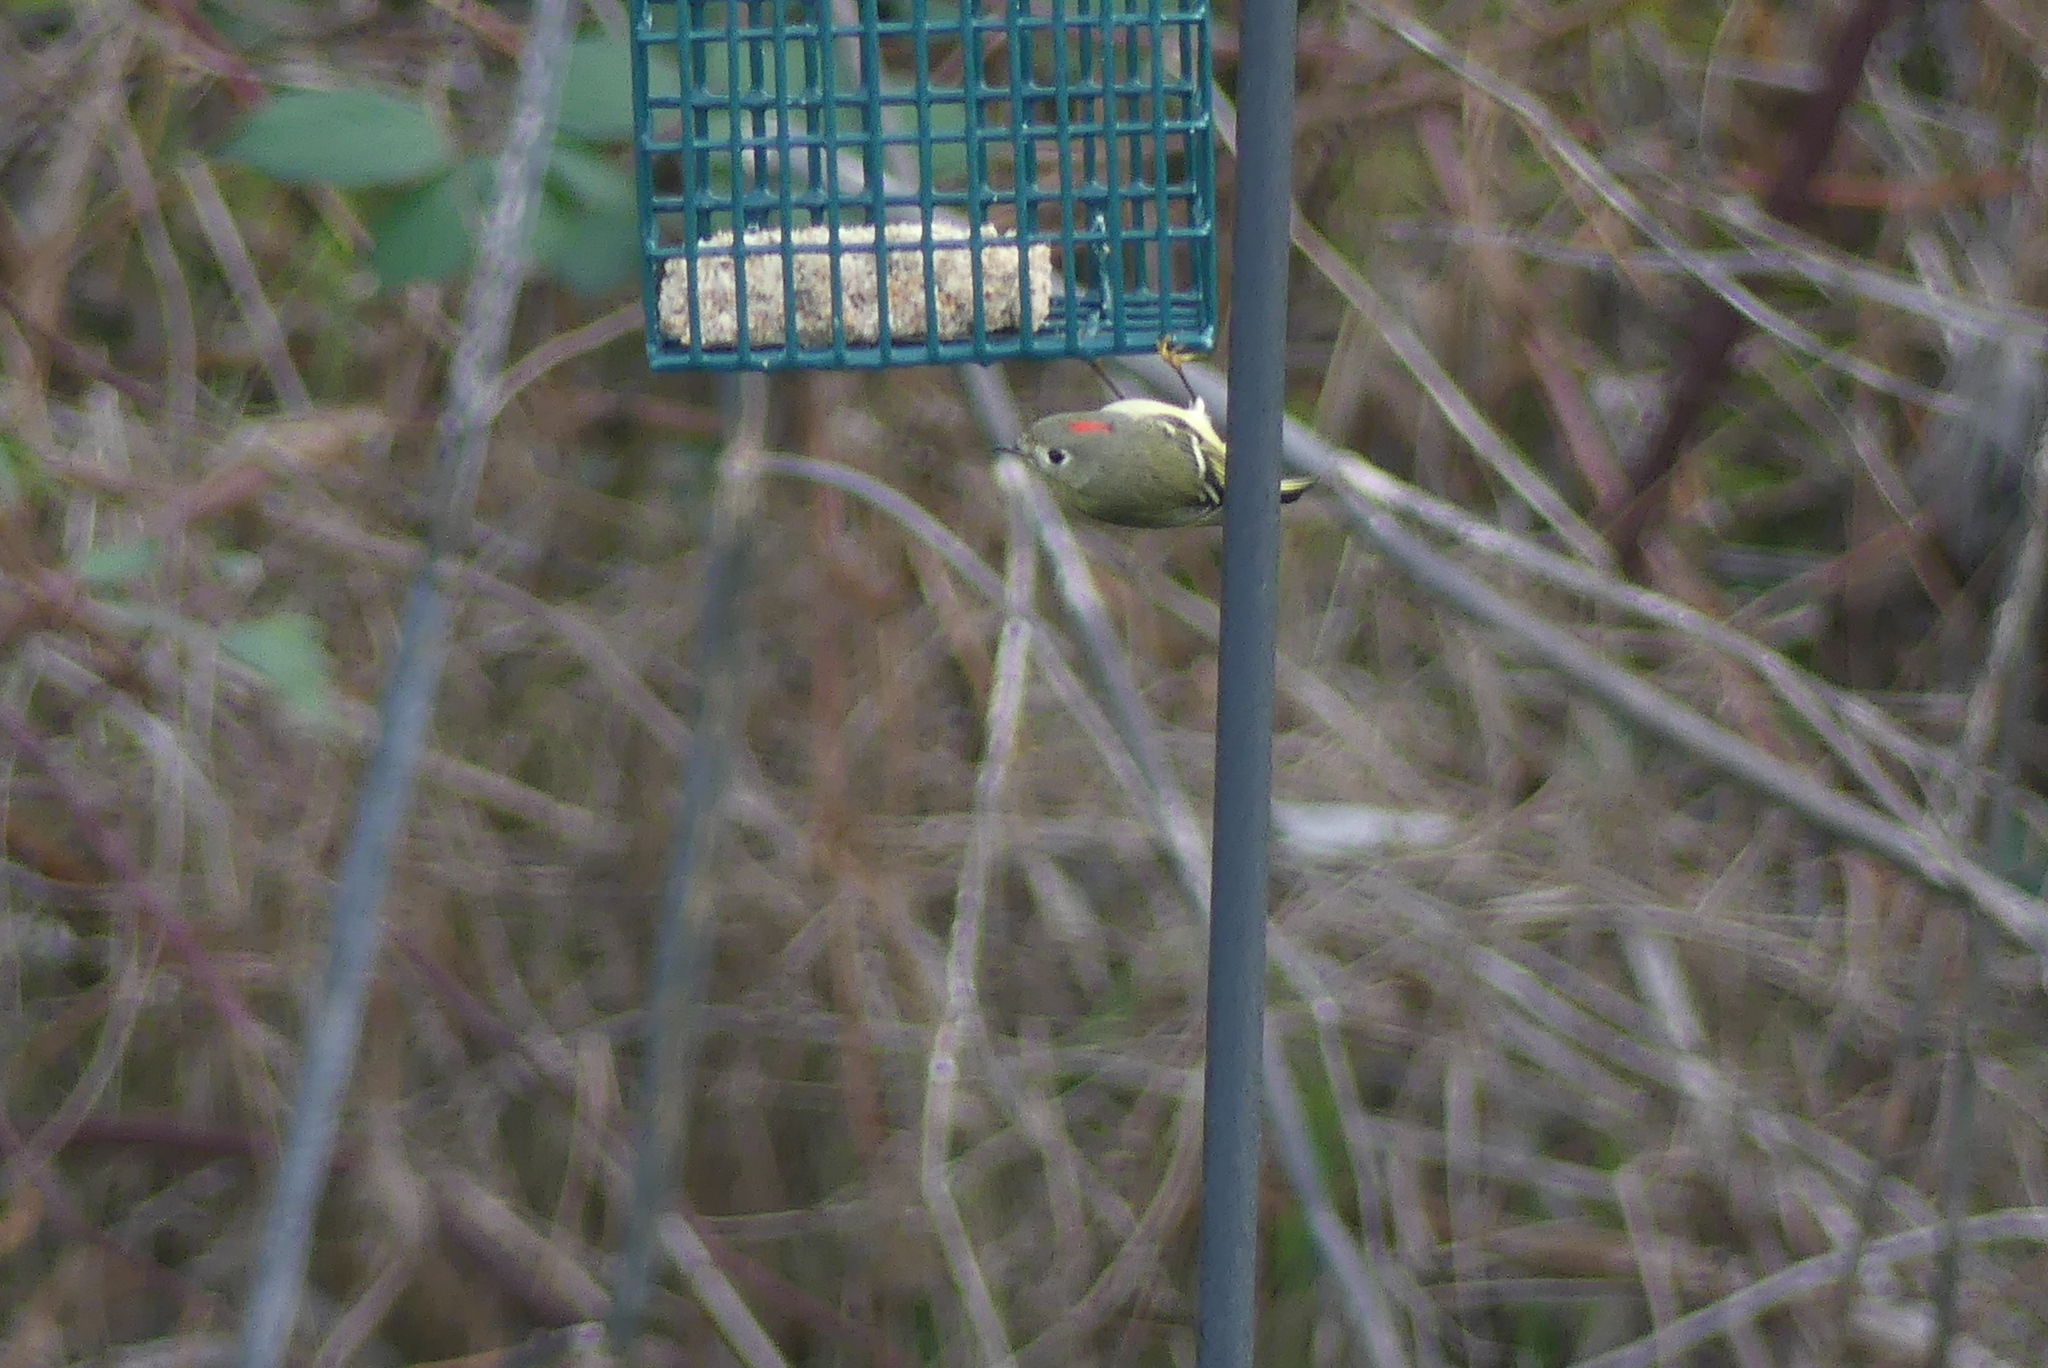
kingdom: Animalia
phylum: Chordata
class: Aves
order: Passeriformes
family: Regulidae
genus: Regulus
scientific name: Regulus calendula
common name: Ruby-crowned kinglet
